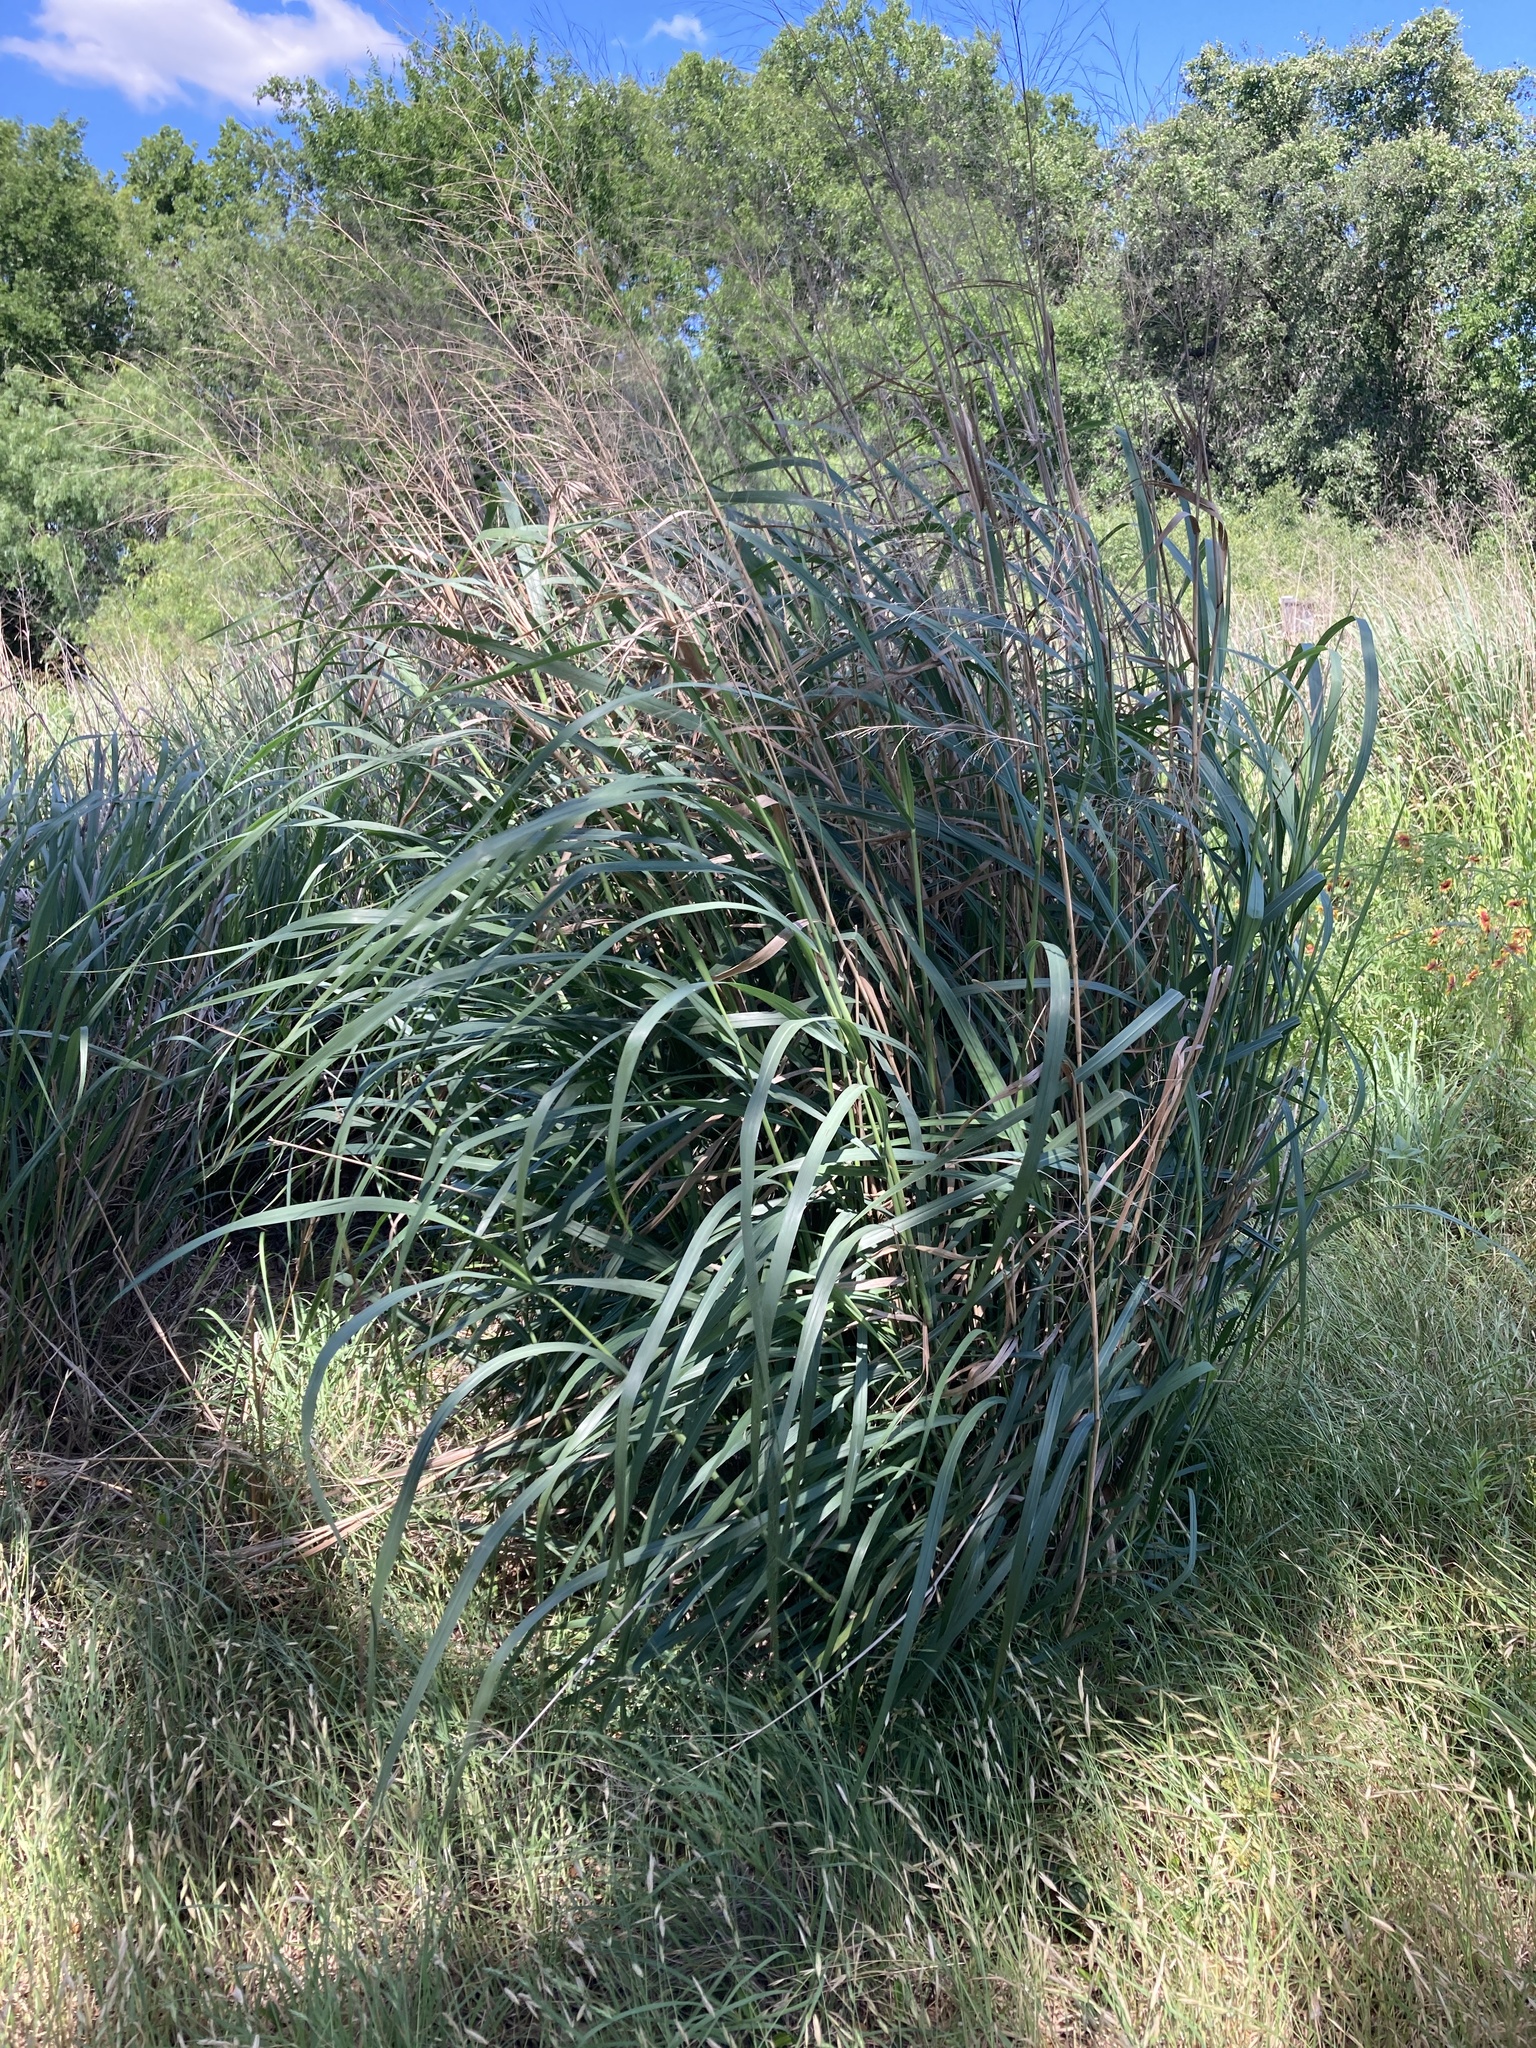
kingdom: Plantae
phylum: Tracheophyta
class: Liliopsida
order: Poales
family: Poaceae
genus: Panicum
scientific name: Panicum virgatum
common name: Switchgrass
